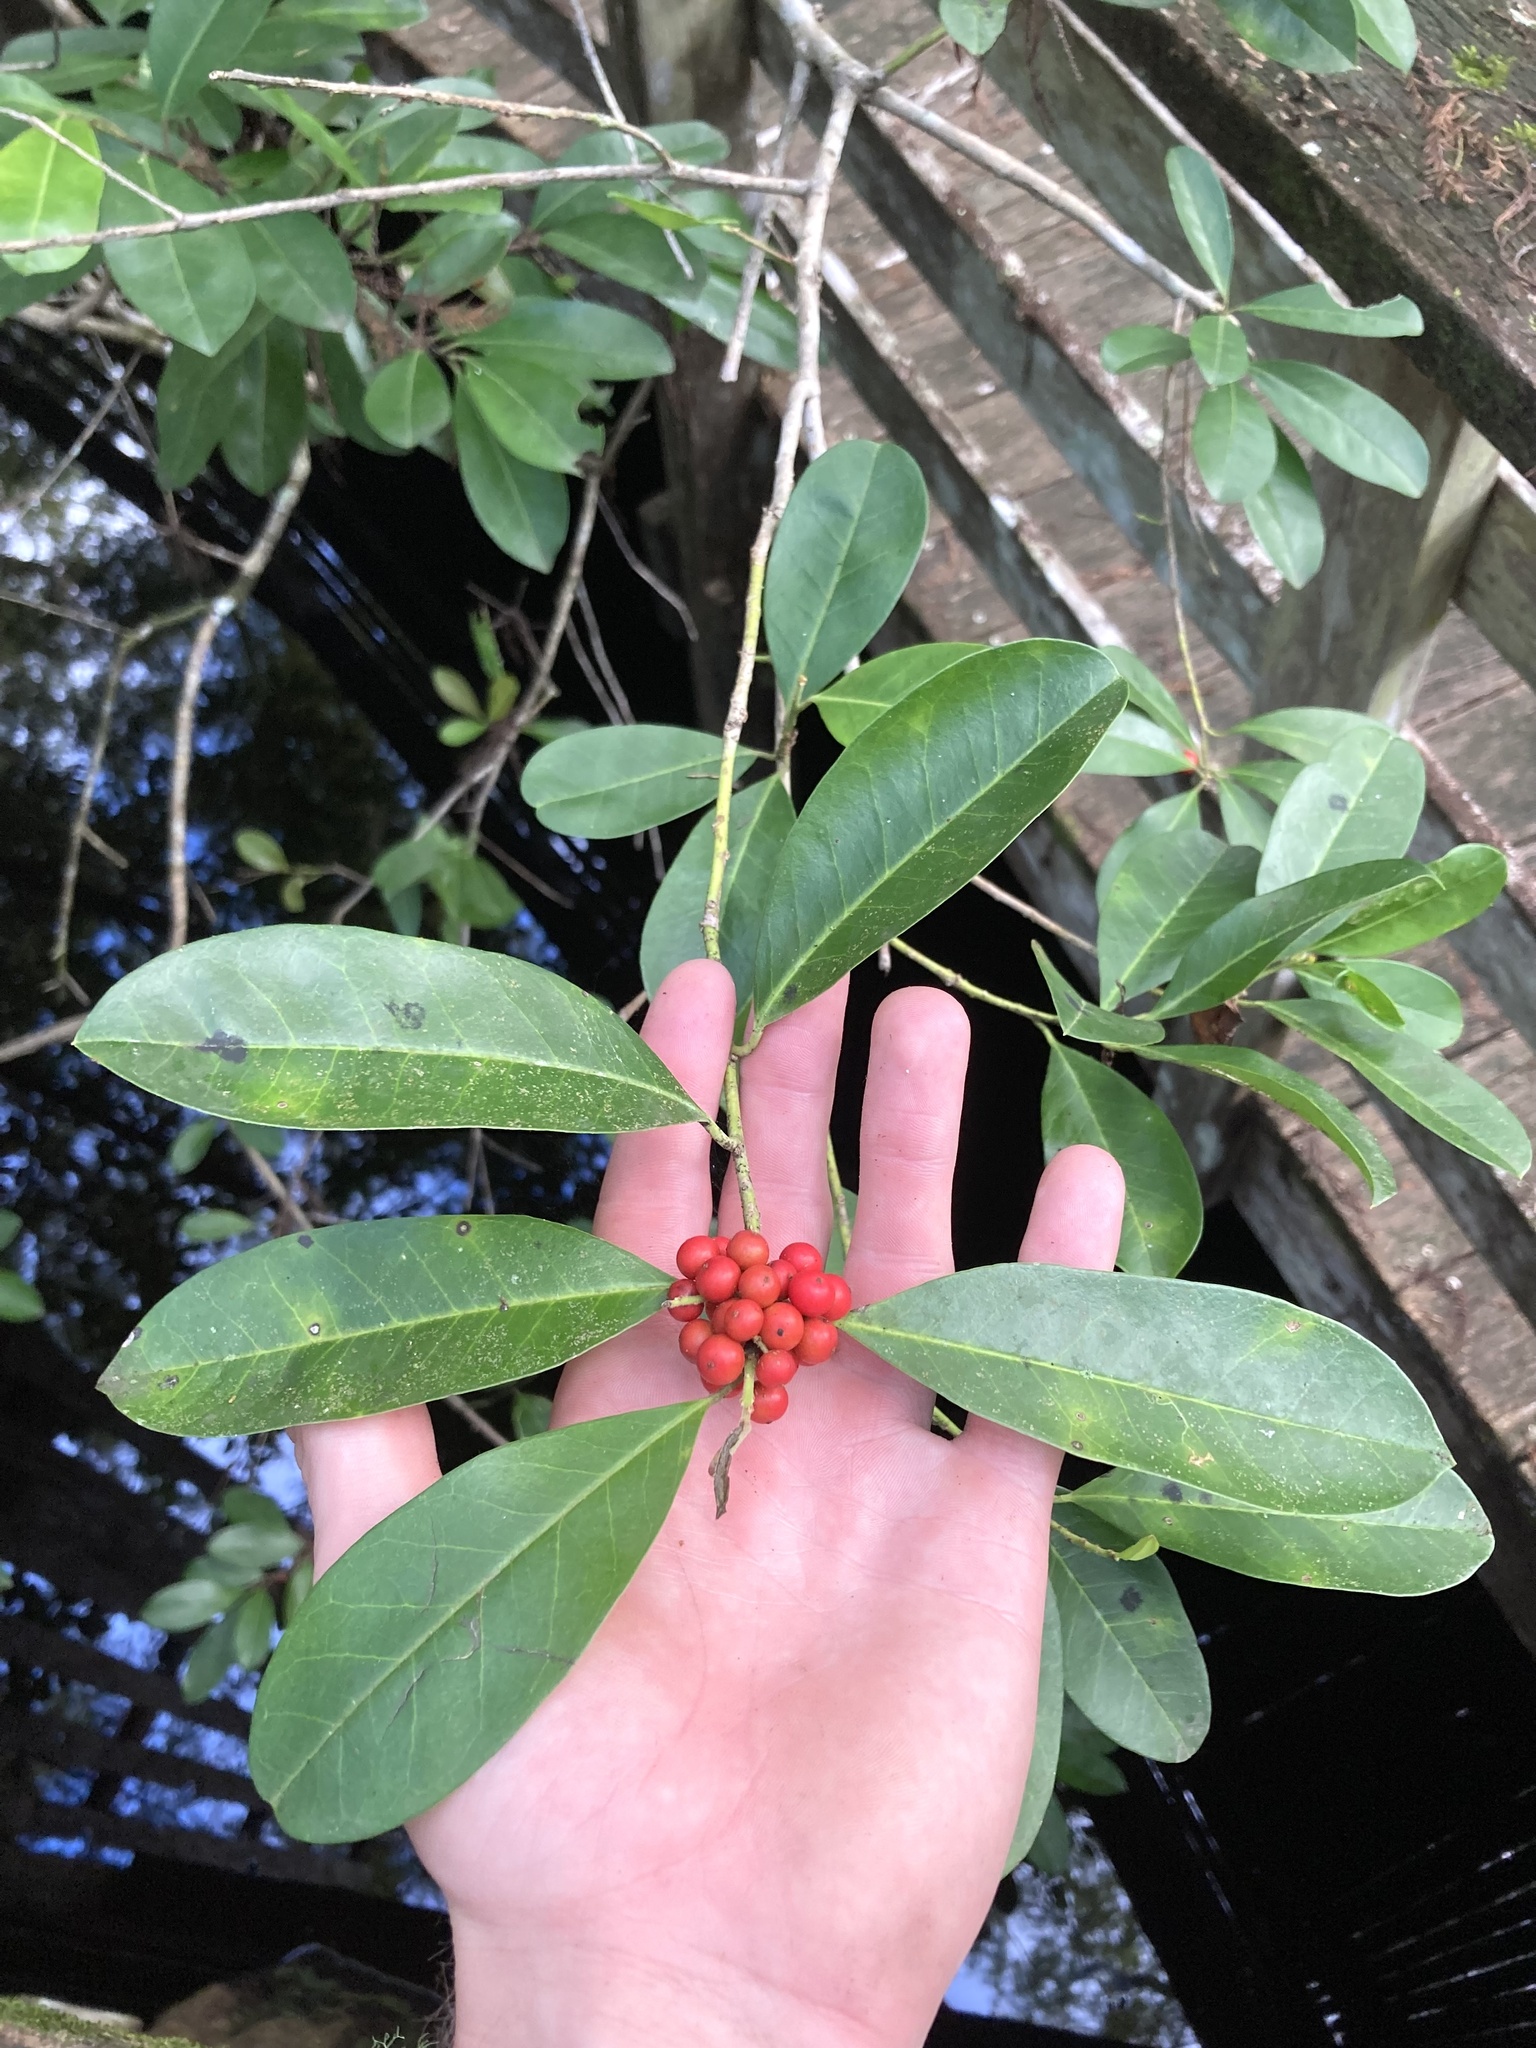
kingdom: Plantae
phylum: Tracheophyta
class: Magnoliopsida
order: Aquifoliales
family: Aquifoliaceae
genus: Ilex
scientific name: Ilex cassine
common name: Dahoon
